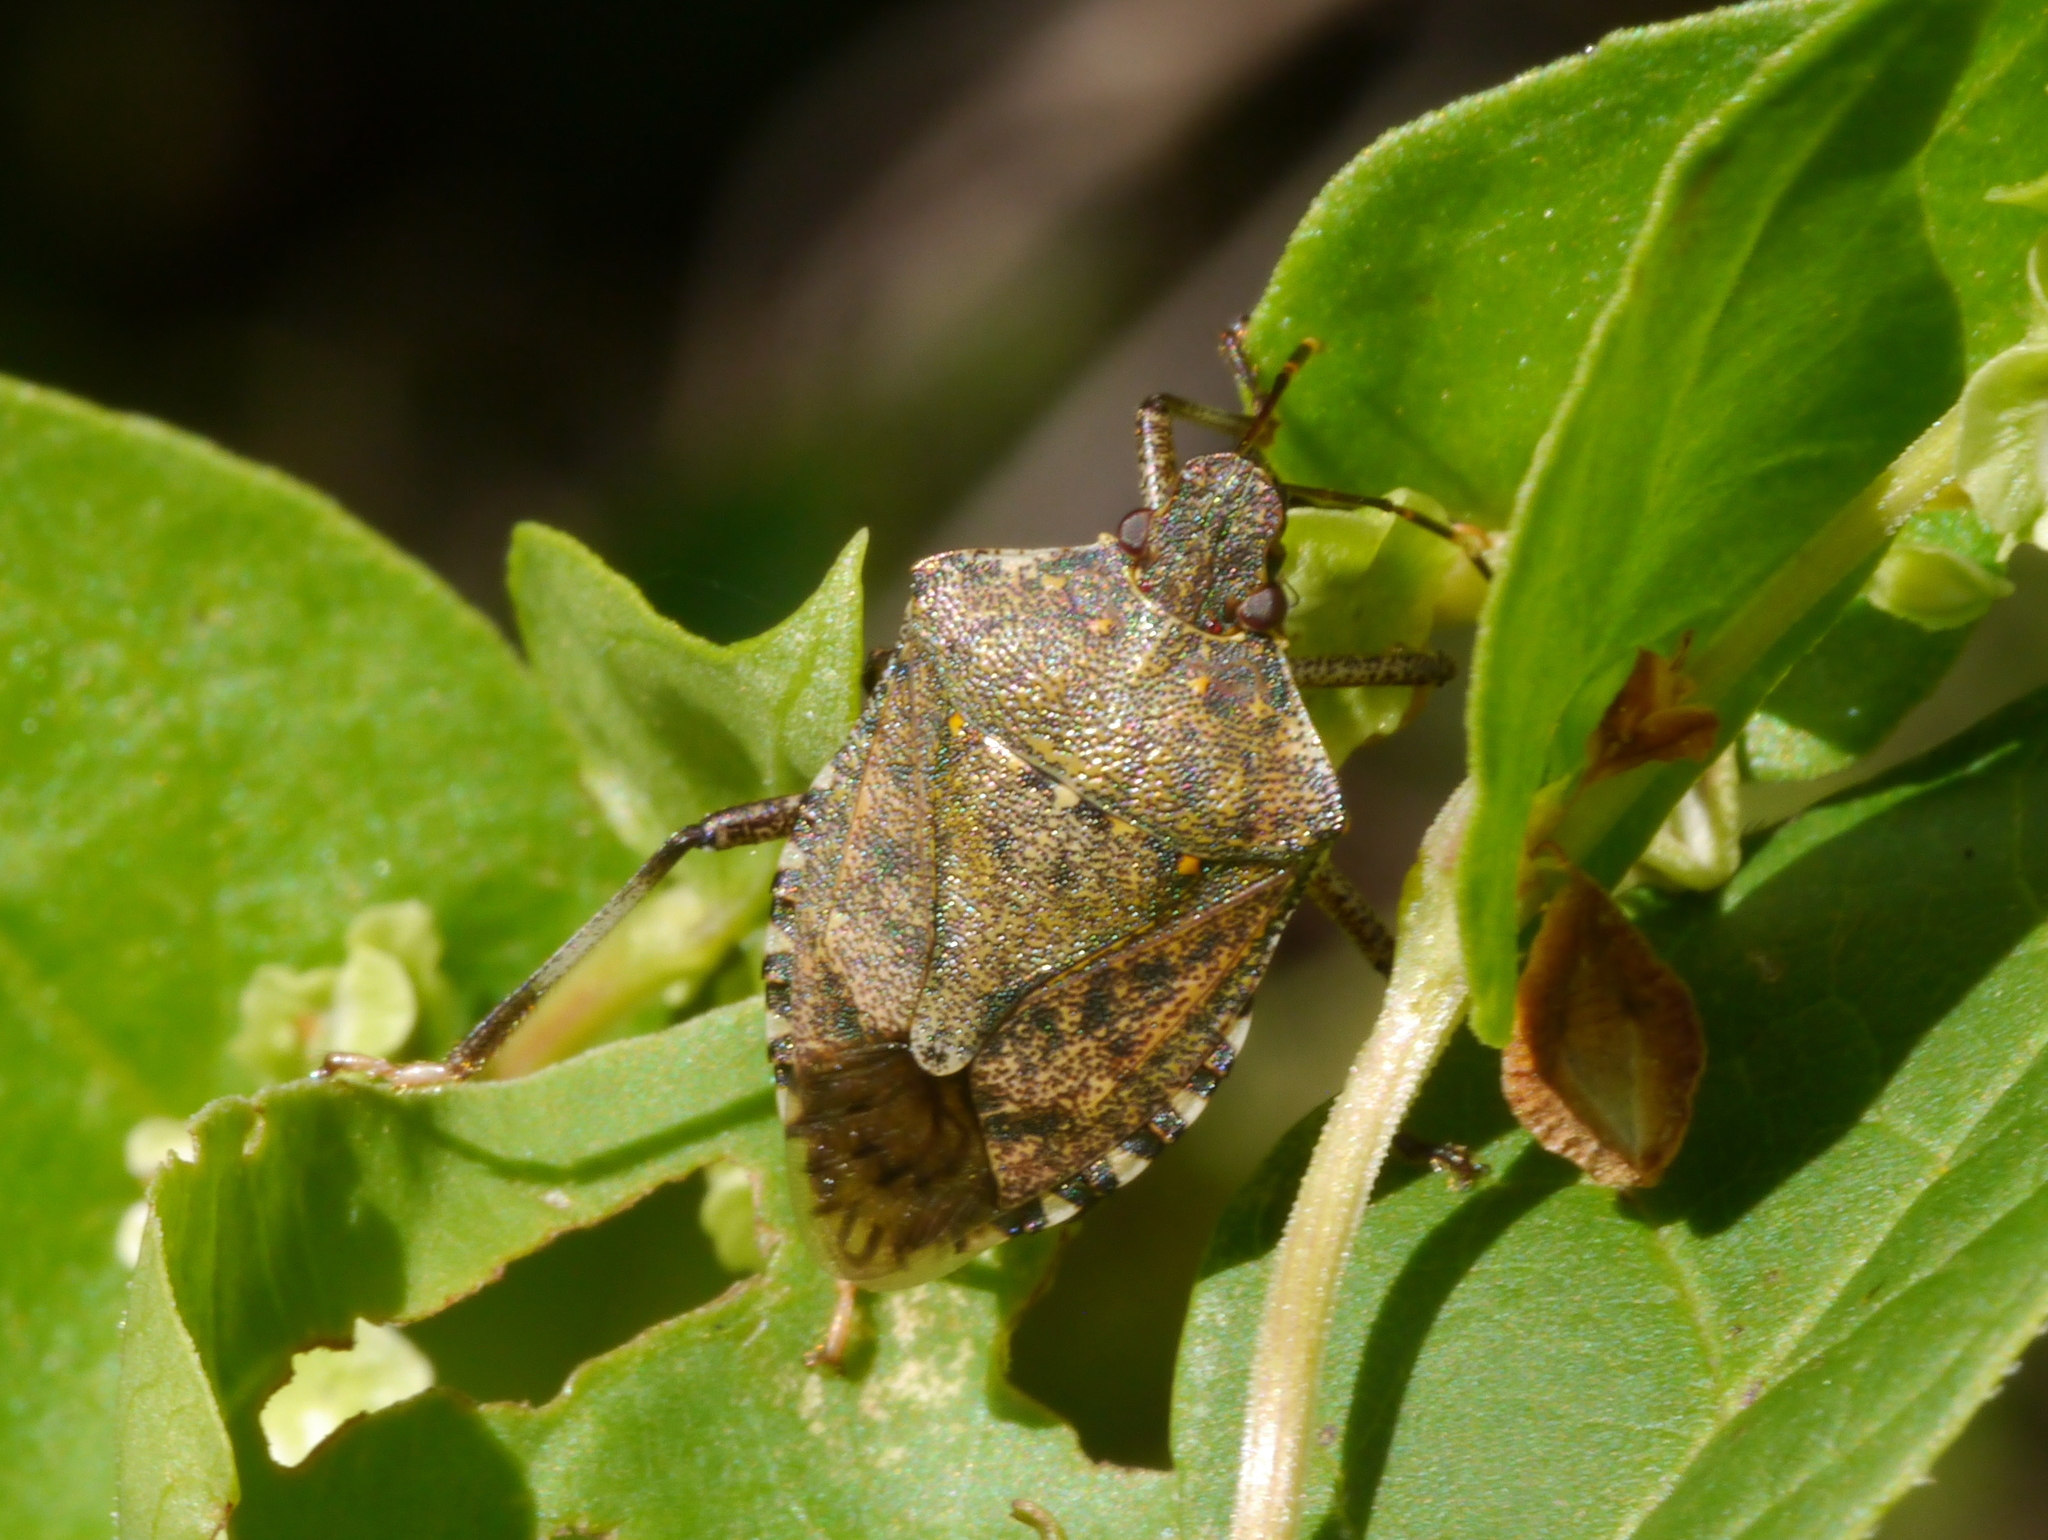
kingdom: Animalia
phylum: Arthropoda
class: Insecta
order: Hemiptera
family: Pentatomidae
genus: Halyomorpha
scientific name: Halyomorpha halys
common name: Brown marmorated stink bug
